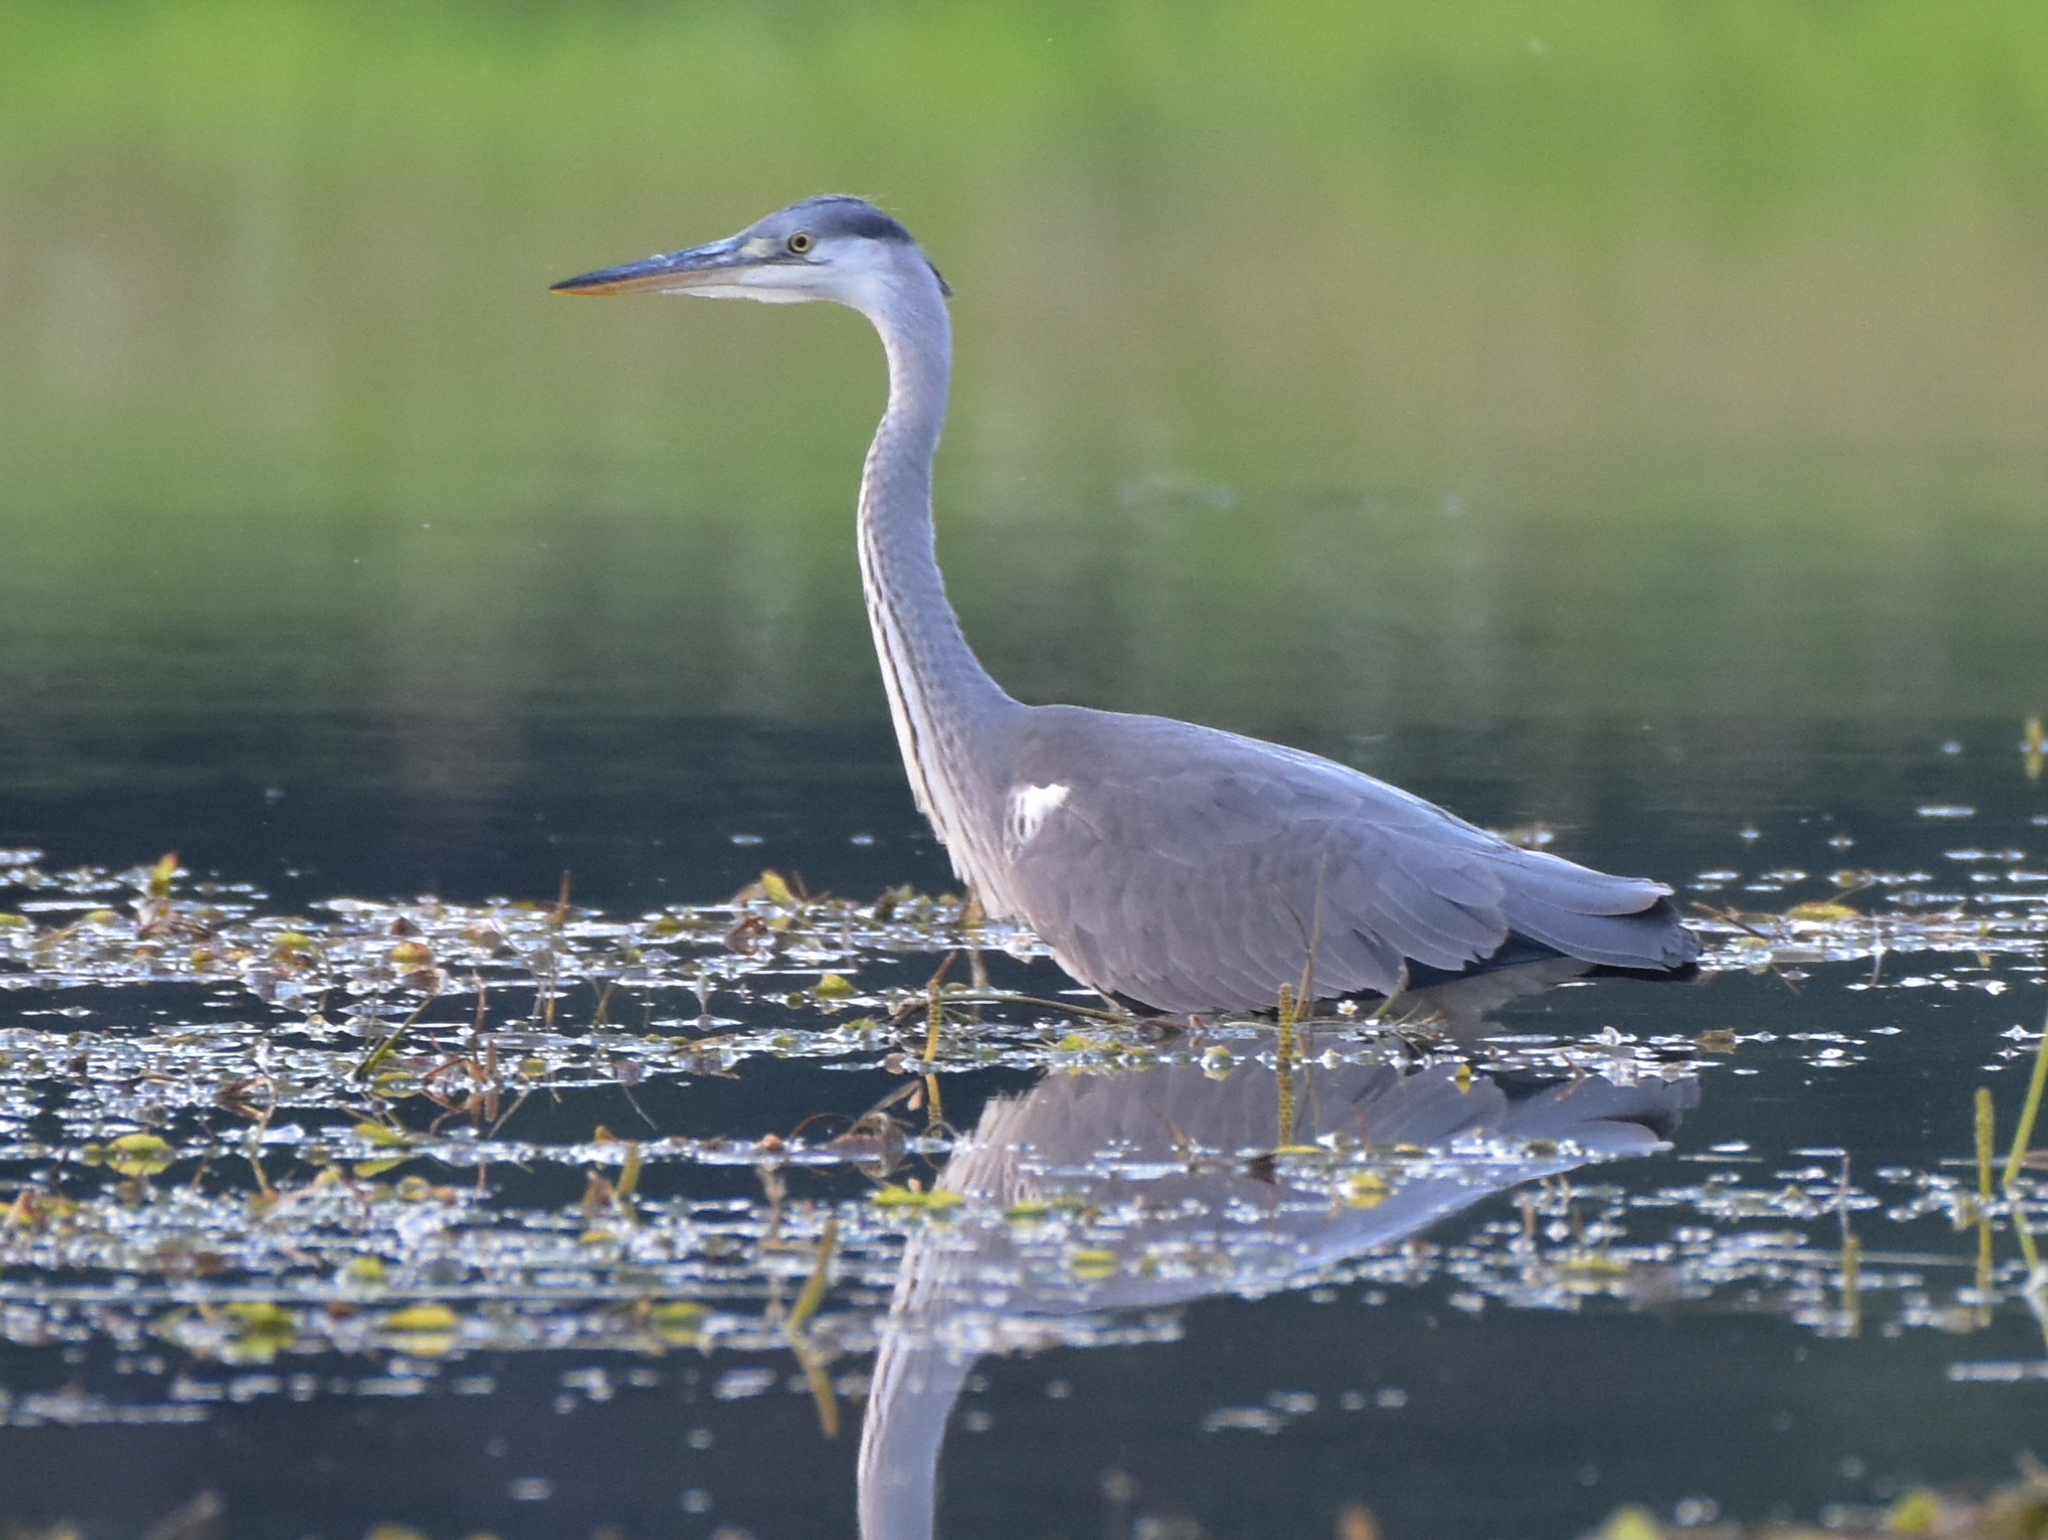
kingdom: Animalia
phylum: Chordata
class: Aves
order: Pelecaniformes
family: Ardeidae
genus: Ardea
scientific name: Ardea cinerea
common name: Grey heron
